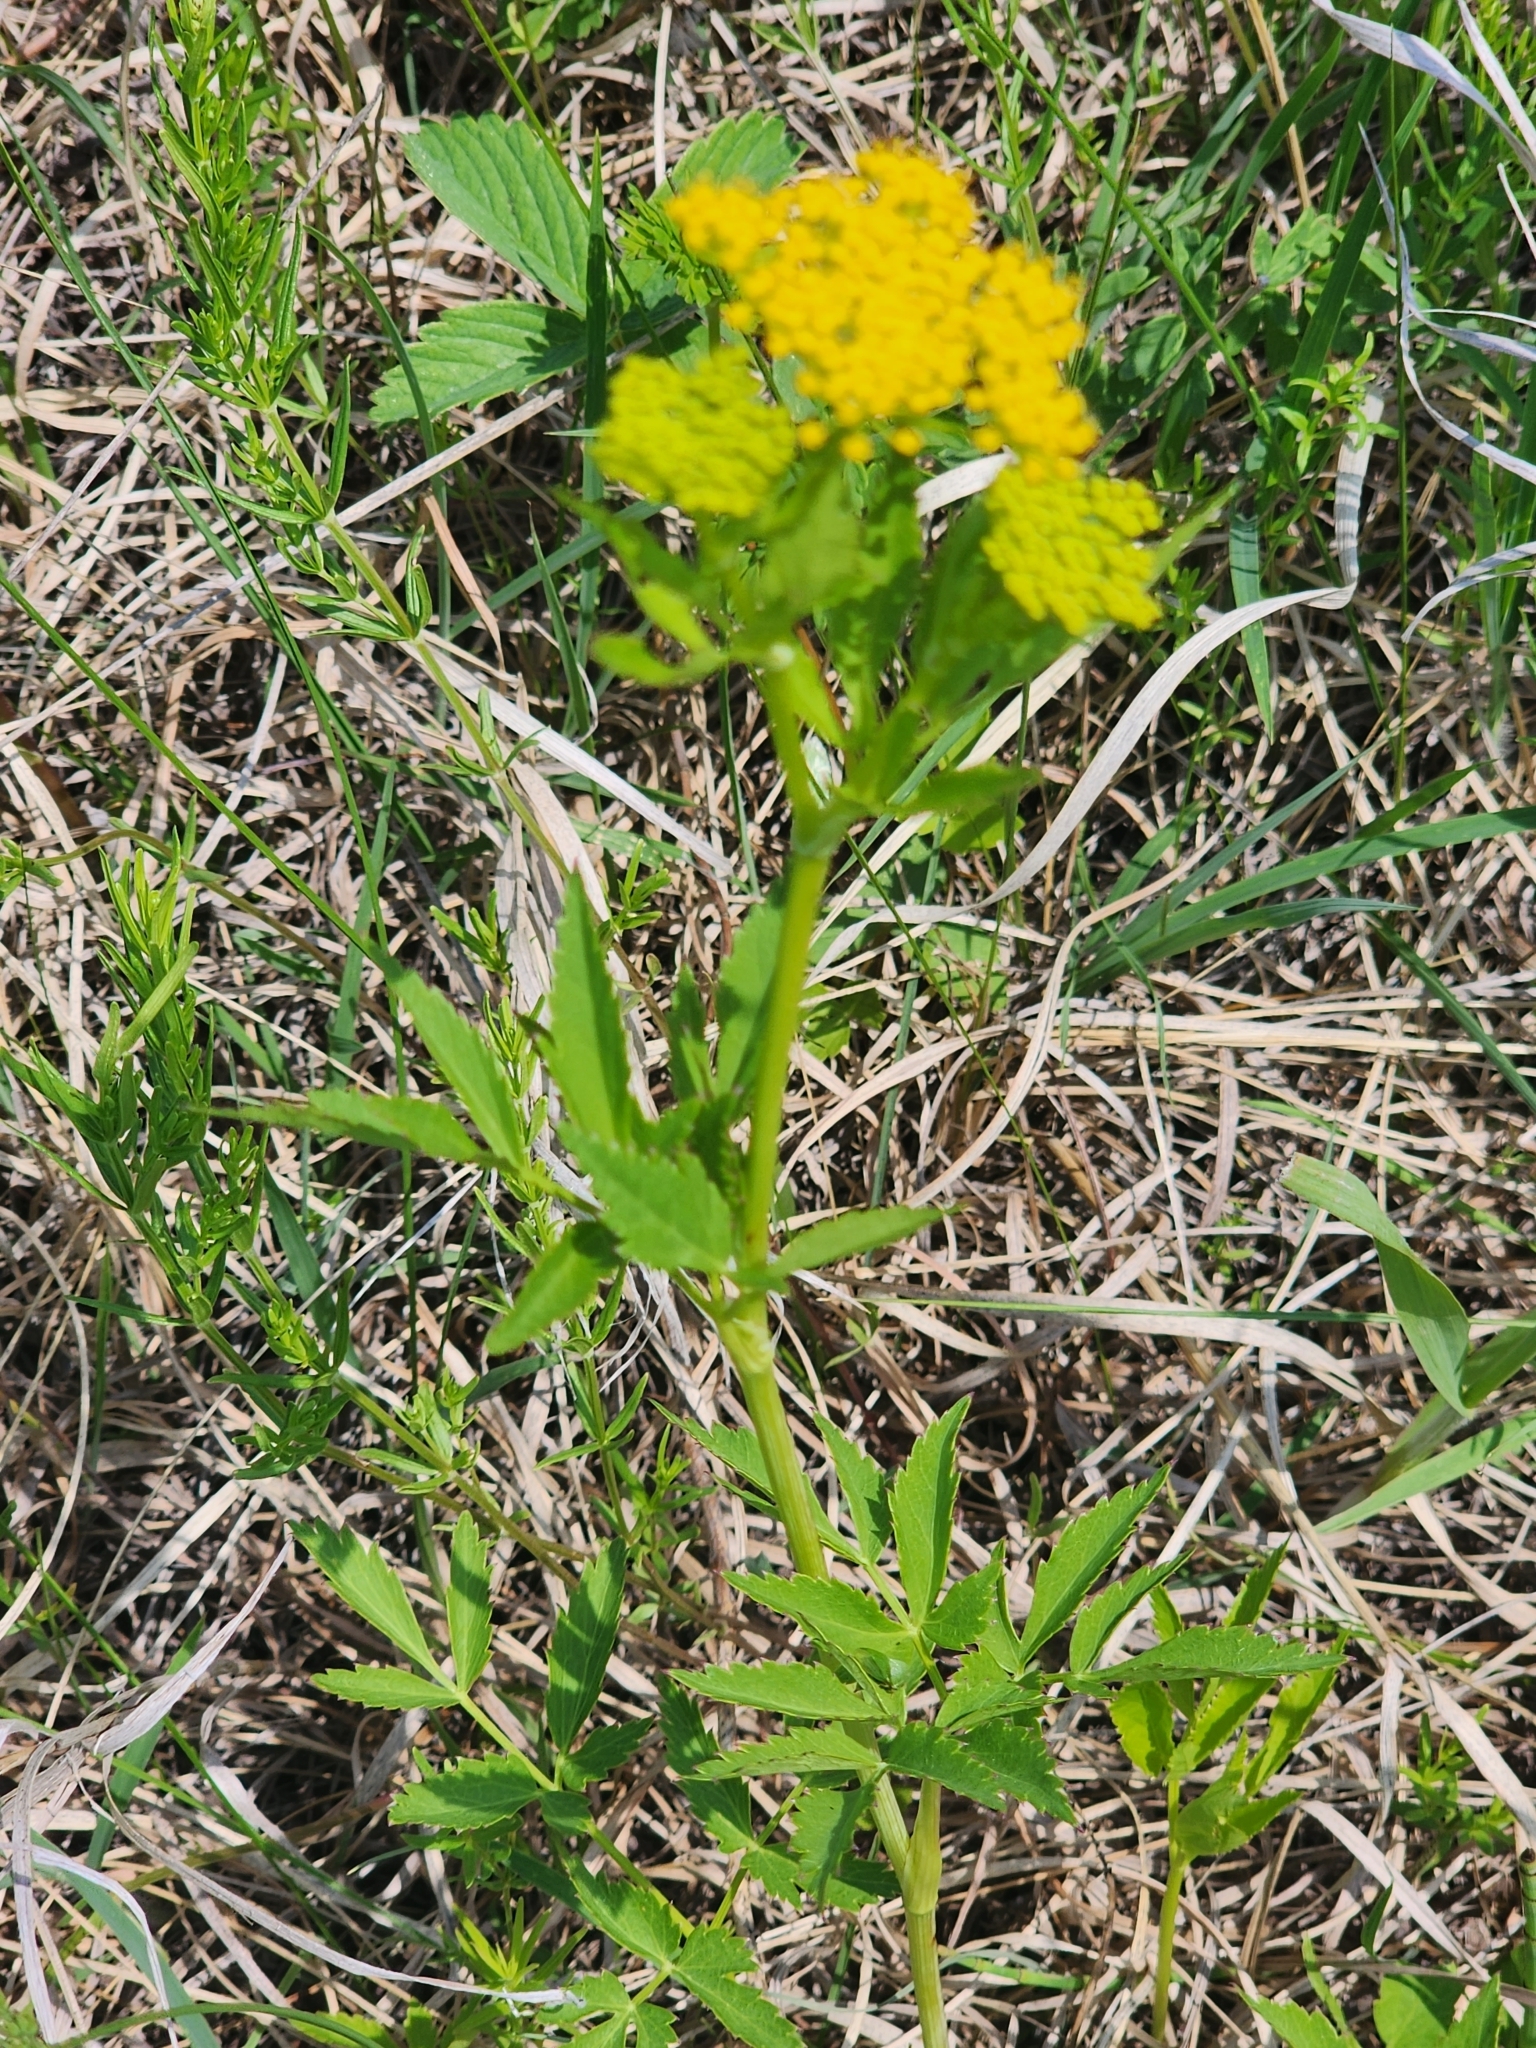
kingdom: Plantae
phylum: Tracheophyta
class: Magnoliopsida
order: Apiales
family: Apiaceae
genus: Zizia
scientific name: Zizia aurea
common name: Golden alexanders
